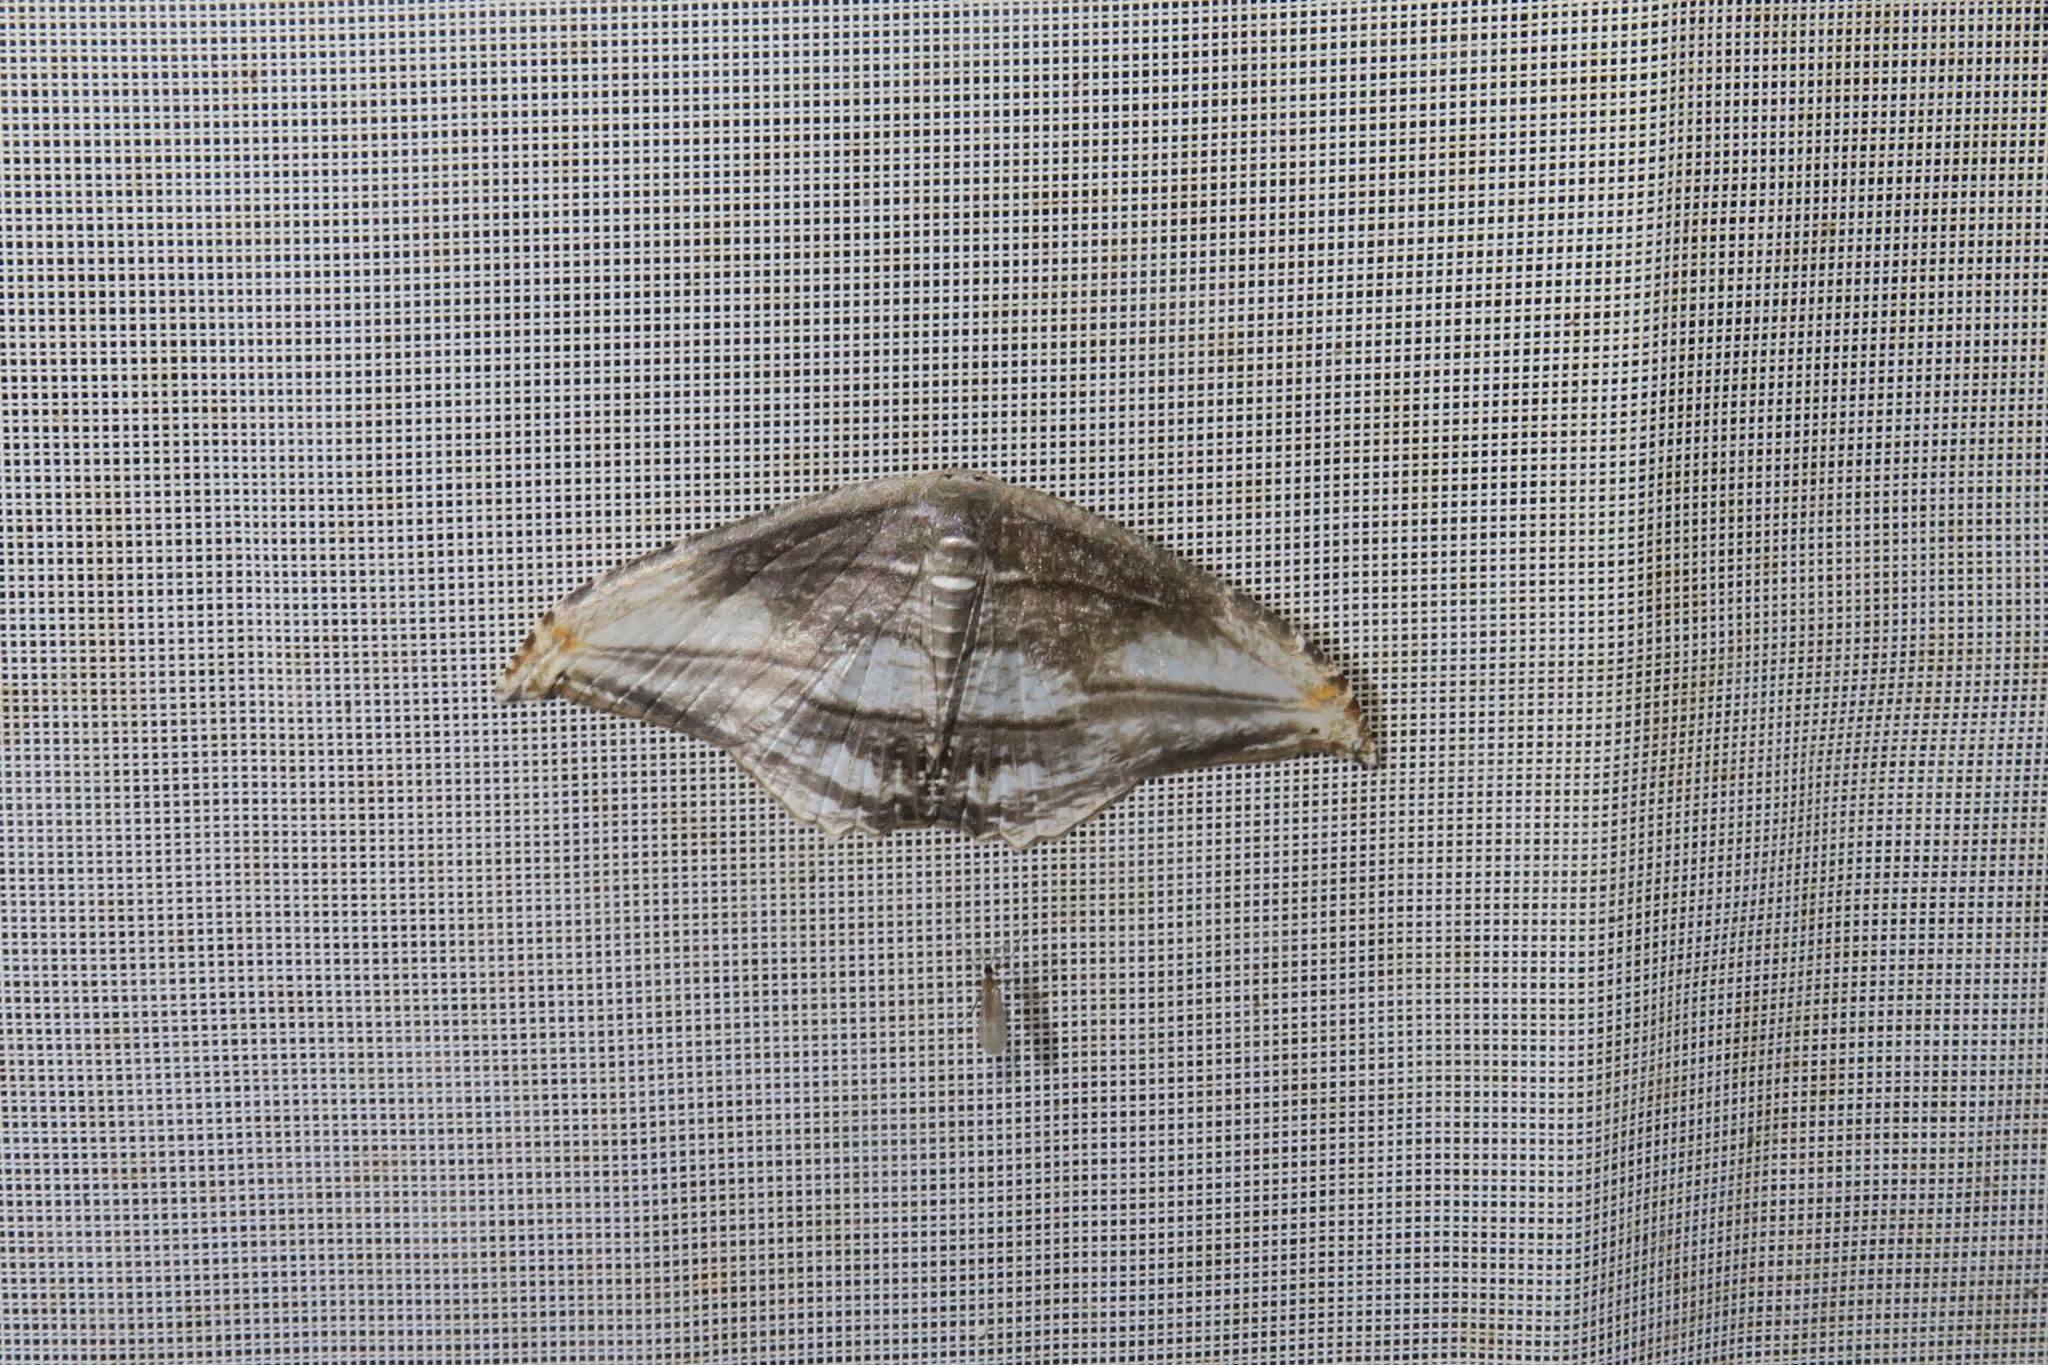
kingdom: Animalia
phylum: Arthropoda
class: Insecta
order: Lepidoptera
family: Uraniidae
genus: Morphomima
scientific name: Morphomima fulvitacta
